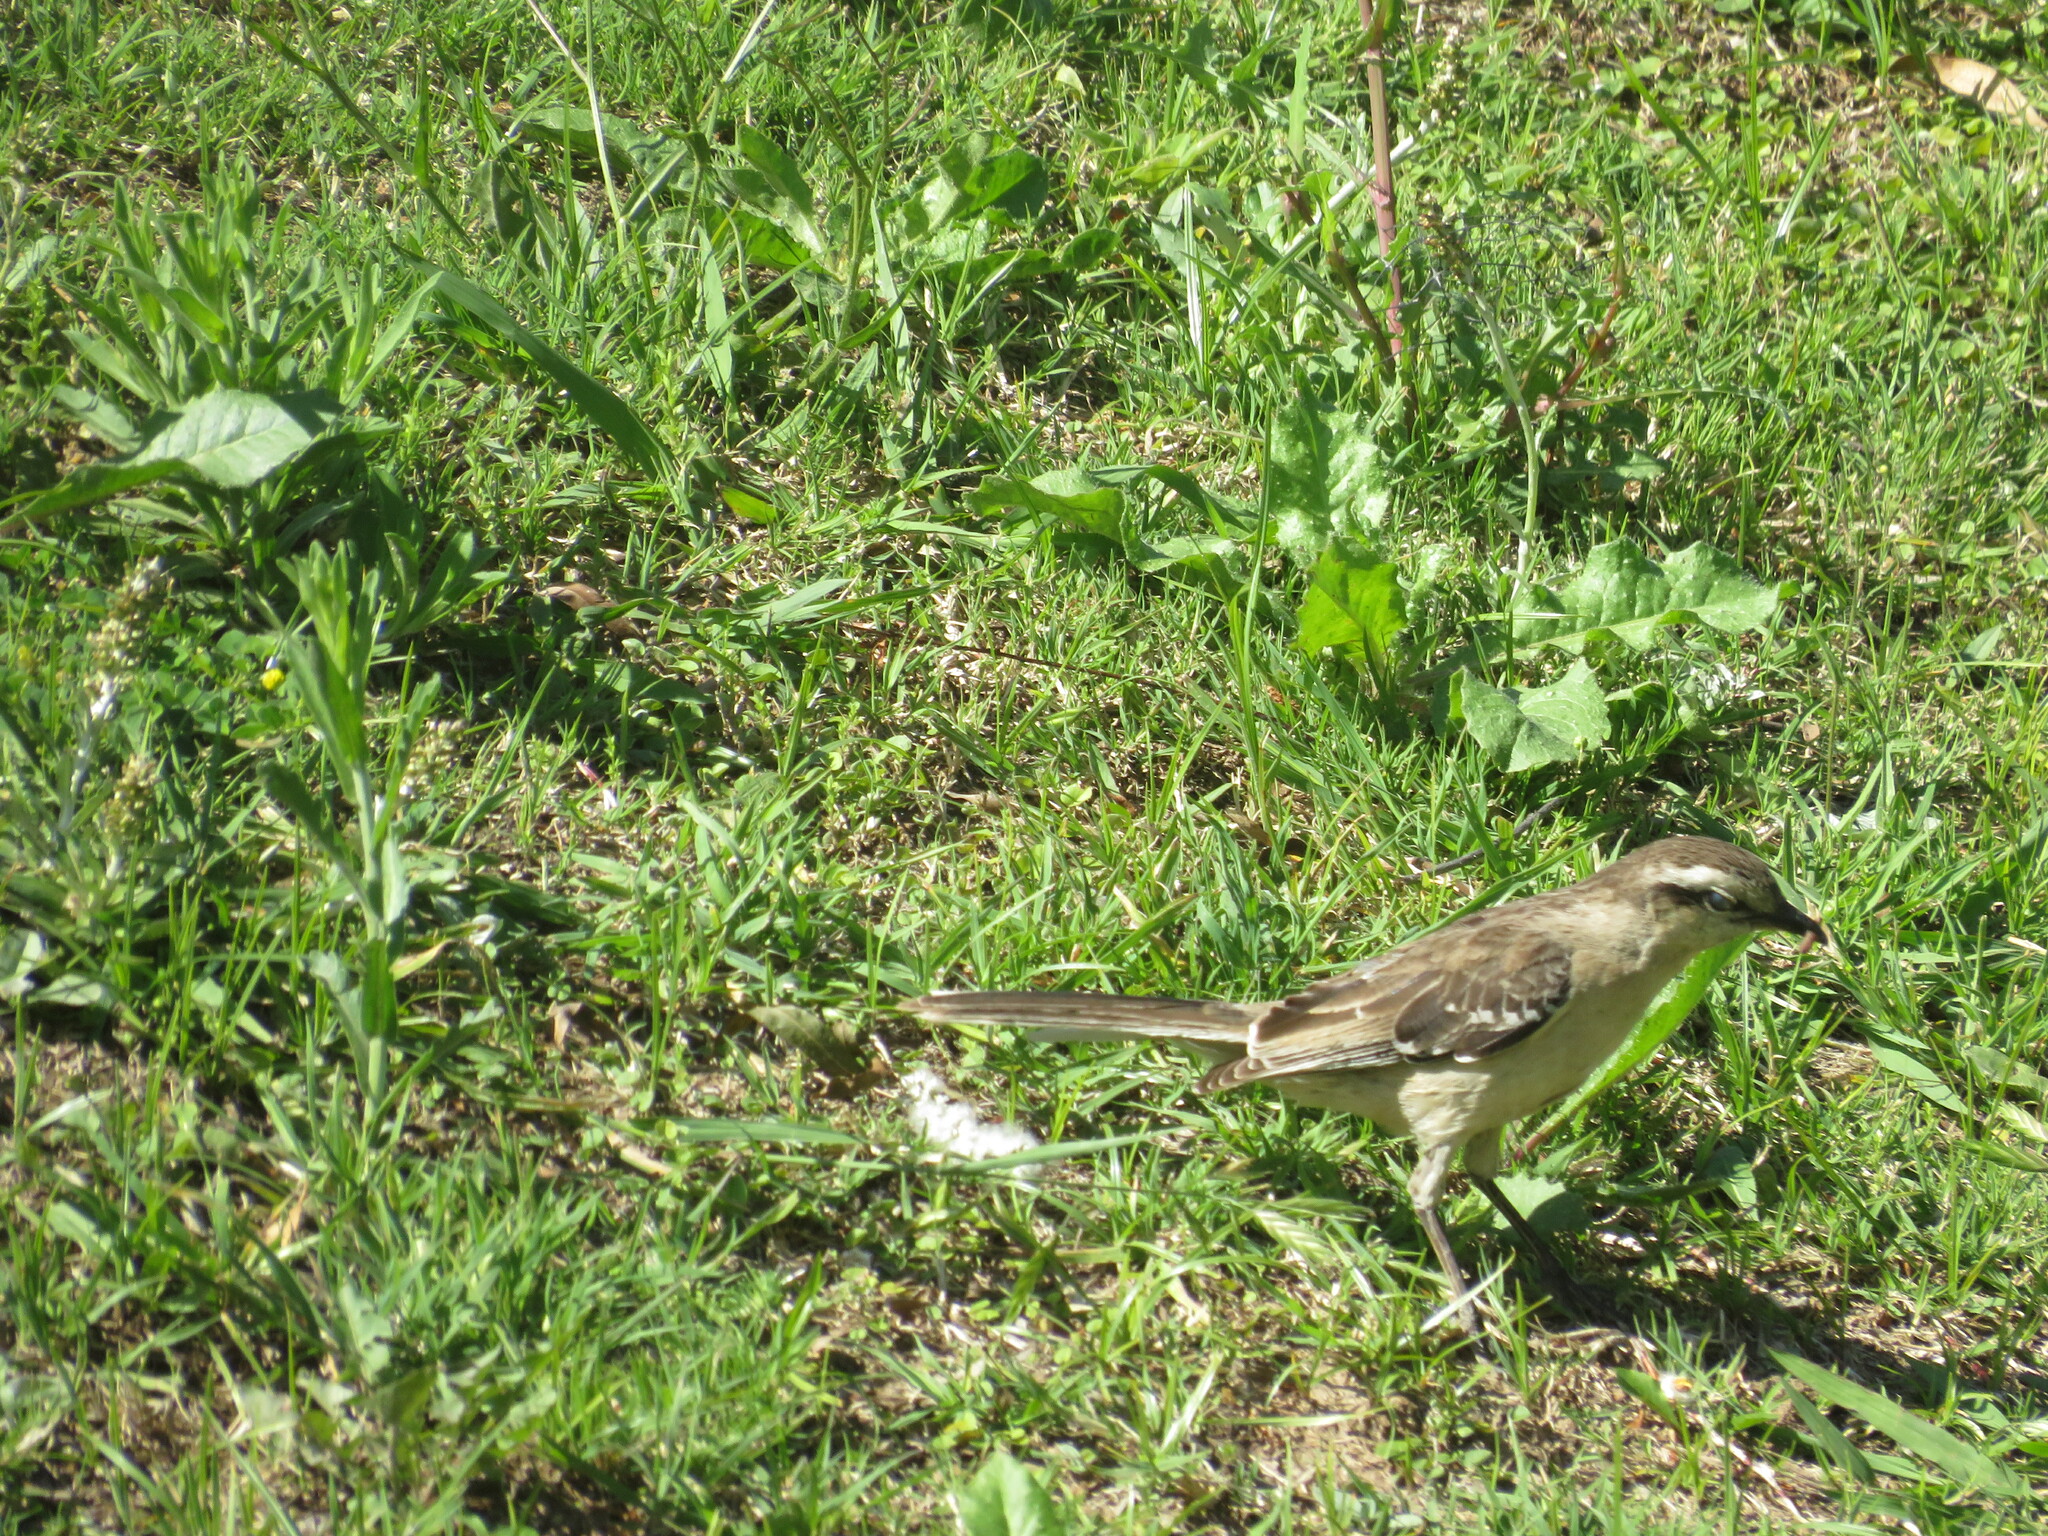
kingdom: Animalia
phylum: Chordata
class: Aves
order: Passeriformes
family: Mimidae
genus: Mimus
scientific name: Mimus saturninus
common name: Chalk-browed mockingbird
